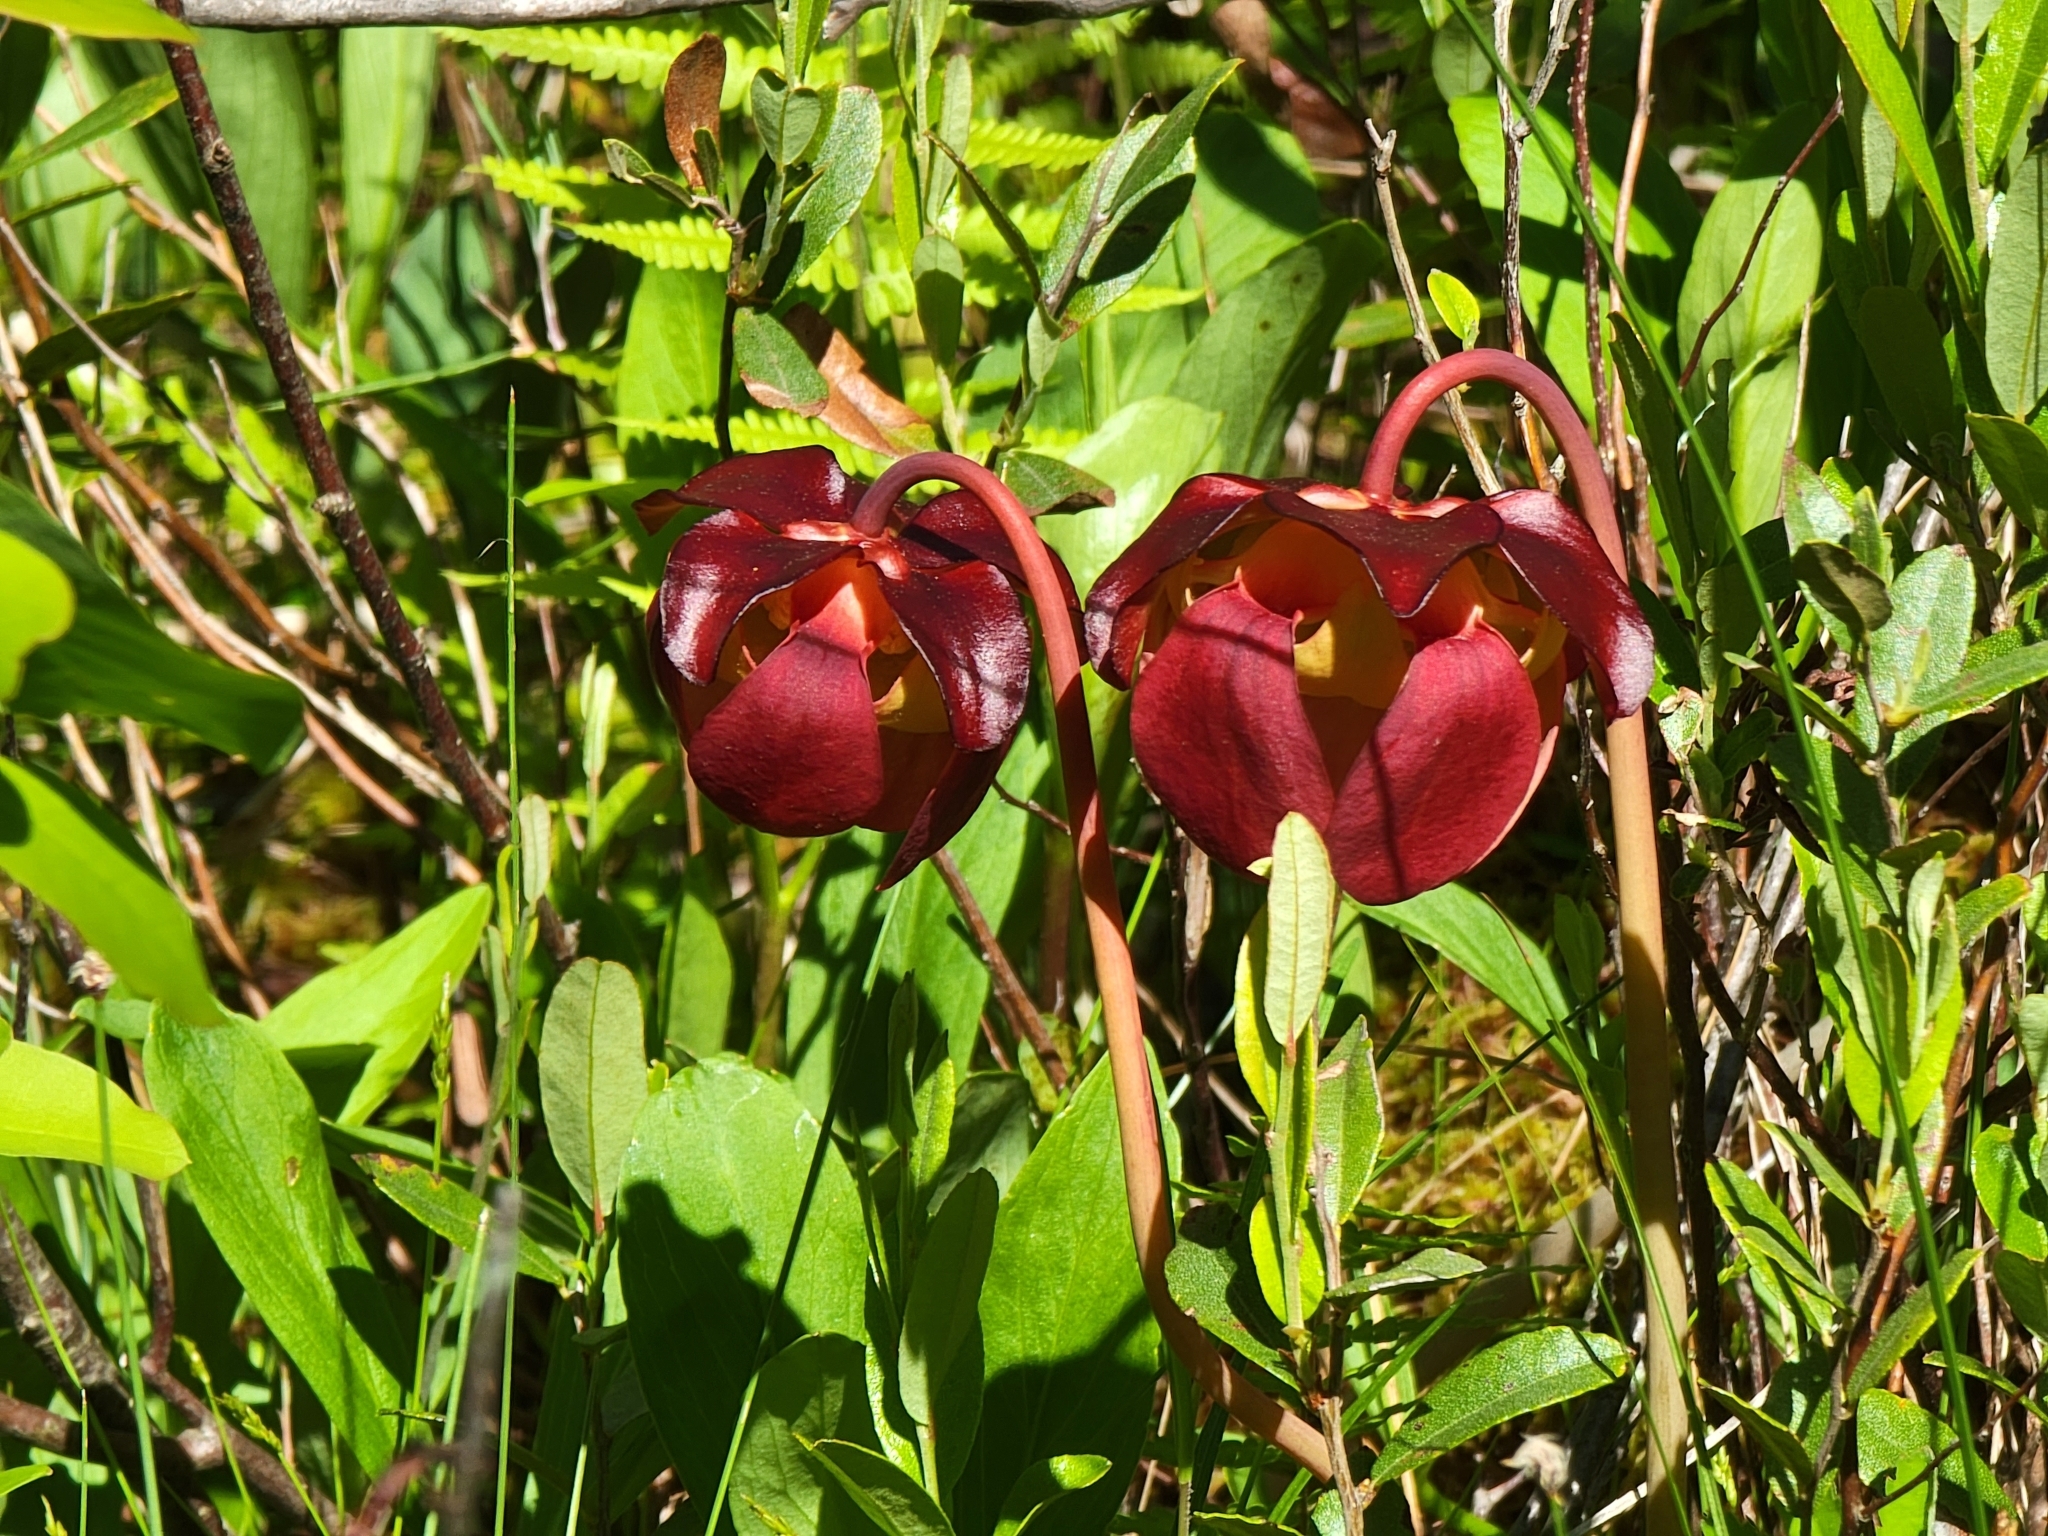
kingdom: Plantae
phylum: Tracheophyta
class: Magnoliopsida
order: Ericales
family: Sarraceniaceae
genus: Sarracenia
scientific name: Sarracenia purpurea
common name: Pitcherplant
